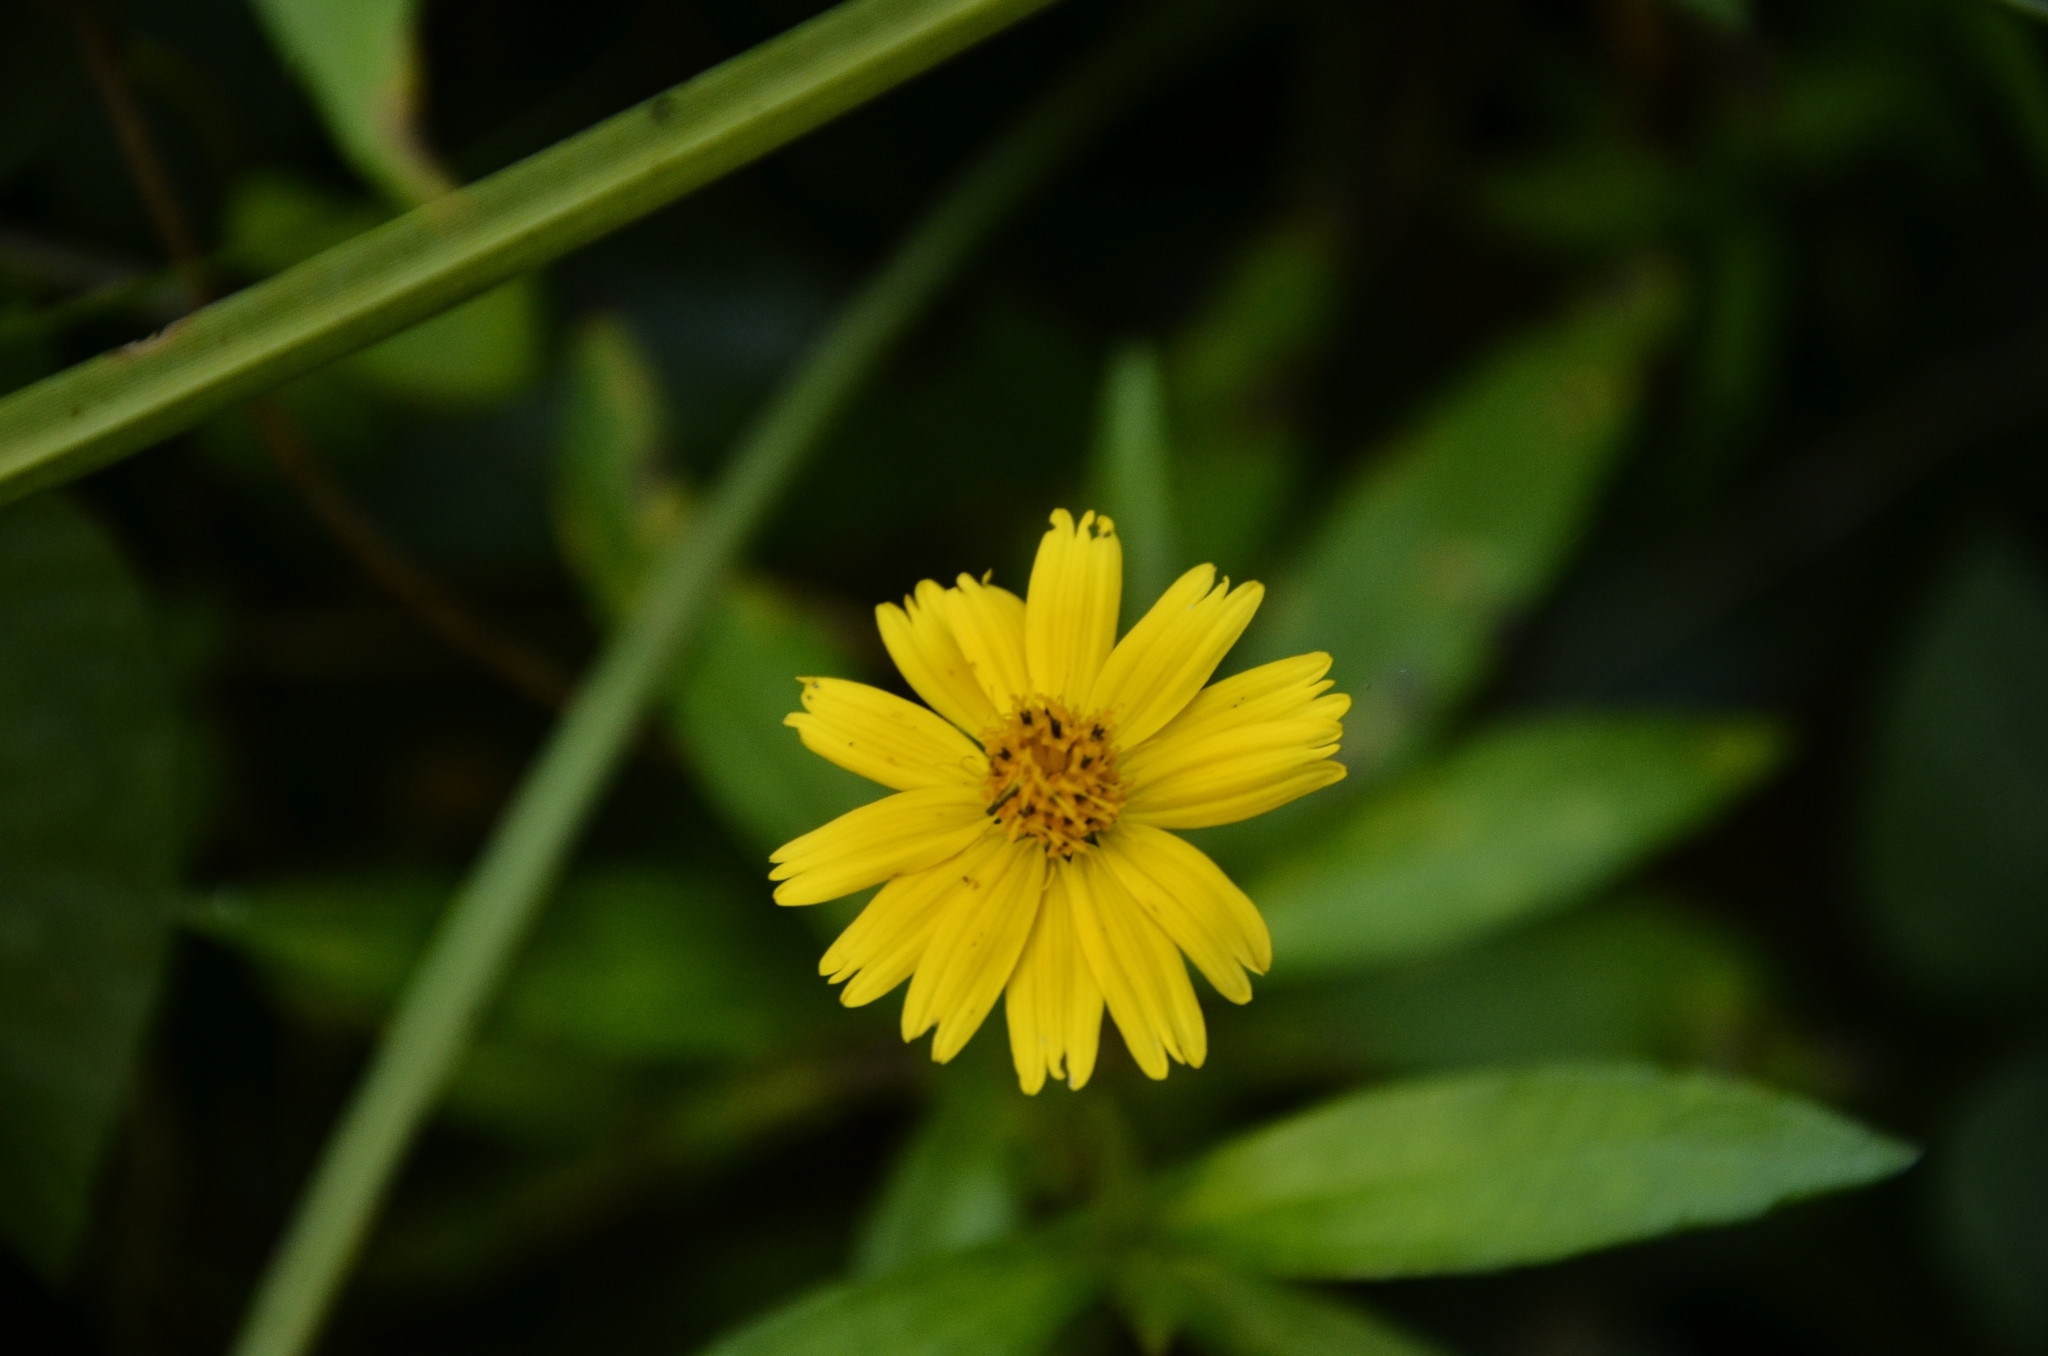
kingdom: Plantae
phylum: Tracheophyta
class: Magnoliopsida
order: Asterales
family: Asteraceae
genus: Sphagneticola
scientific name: Sphagneticola trilobata
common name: Bay biscayne creeping-oxeye
